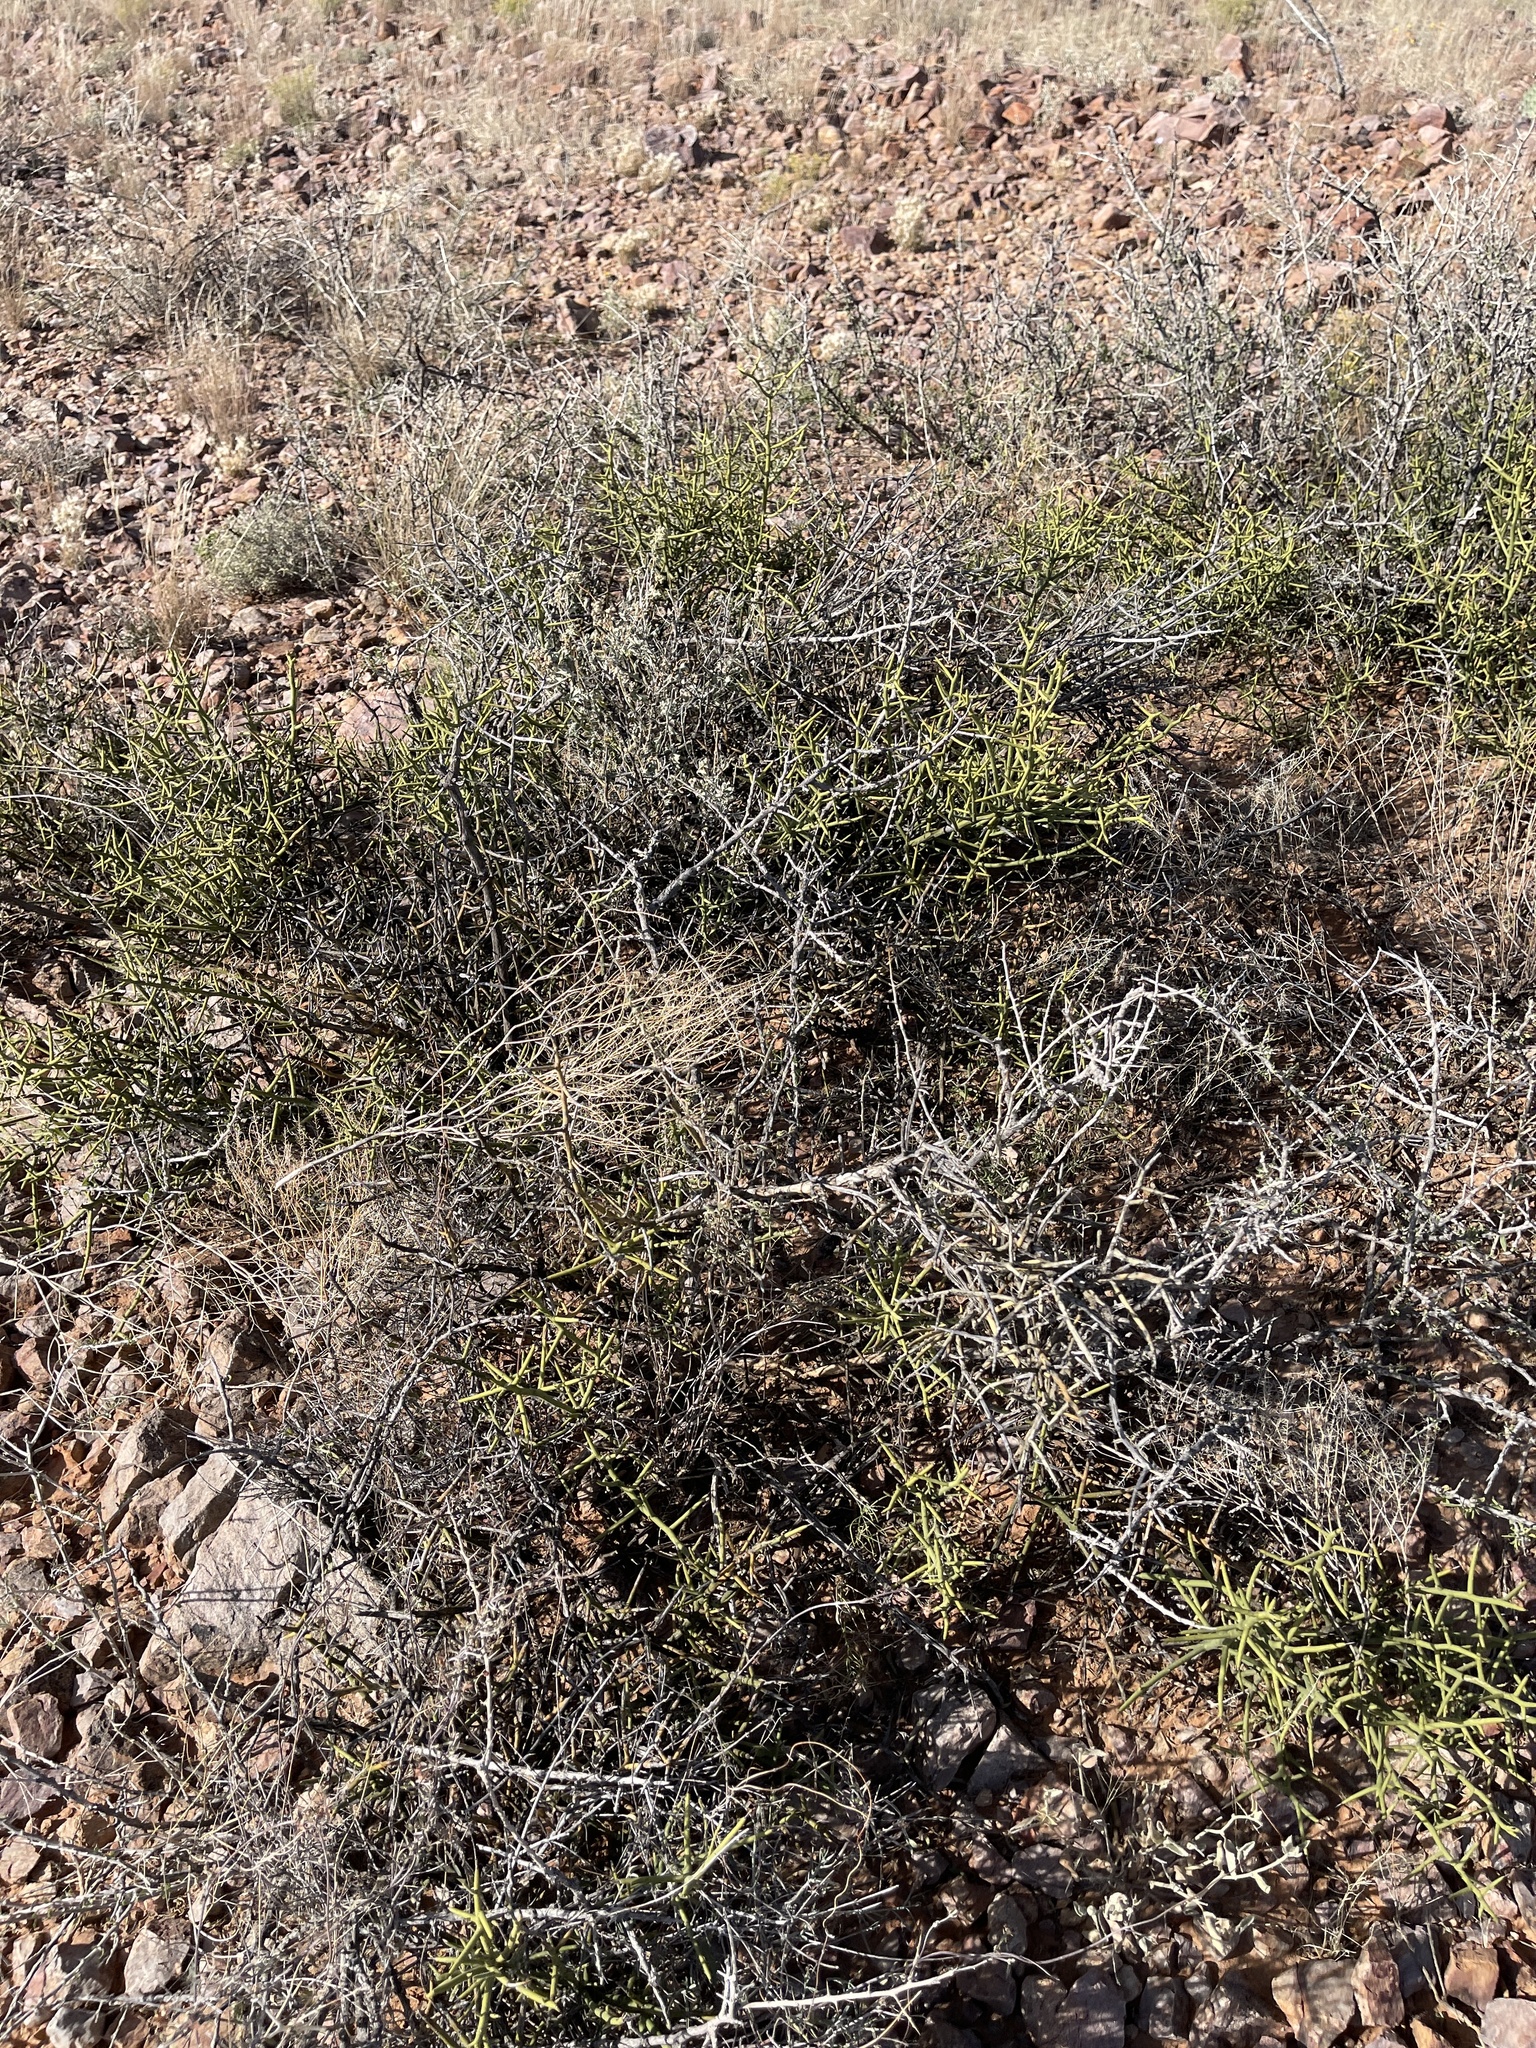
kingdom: Plantae
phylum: Tracheophyta
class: Magnoliopsida
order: Brassicales
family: Koeberliniaceae
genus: Koeberlinia
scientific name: Koeberlinia spinosa
